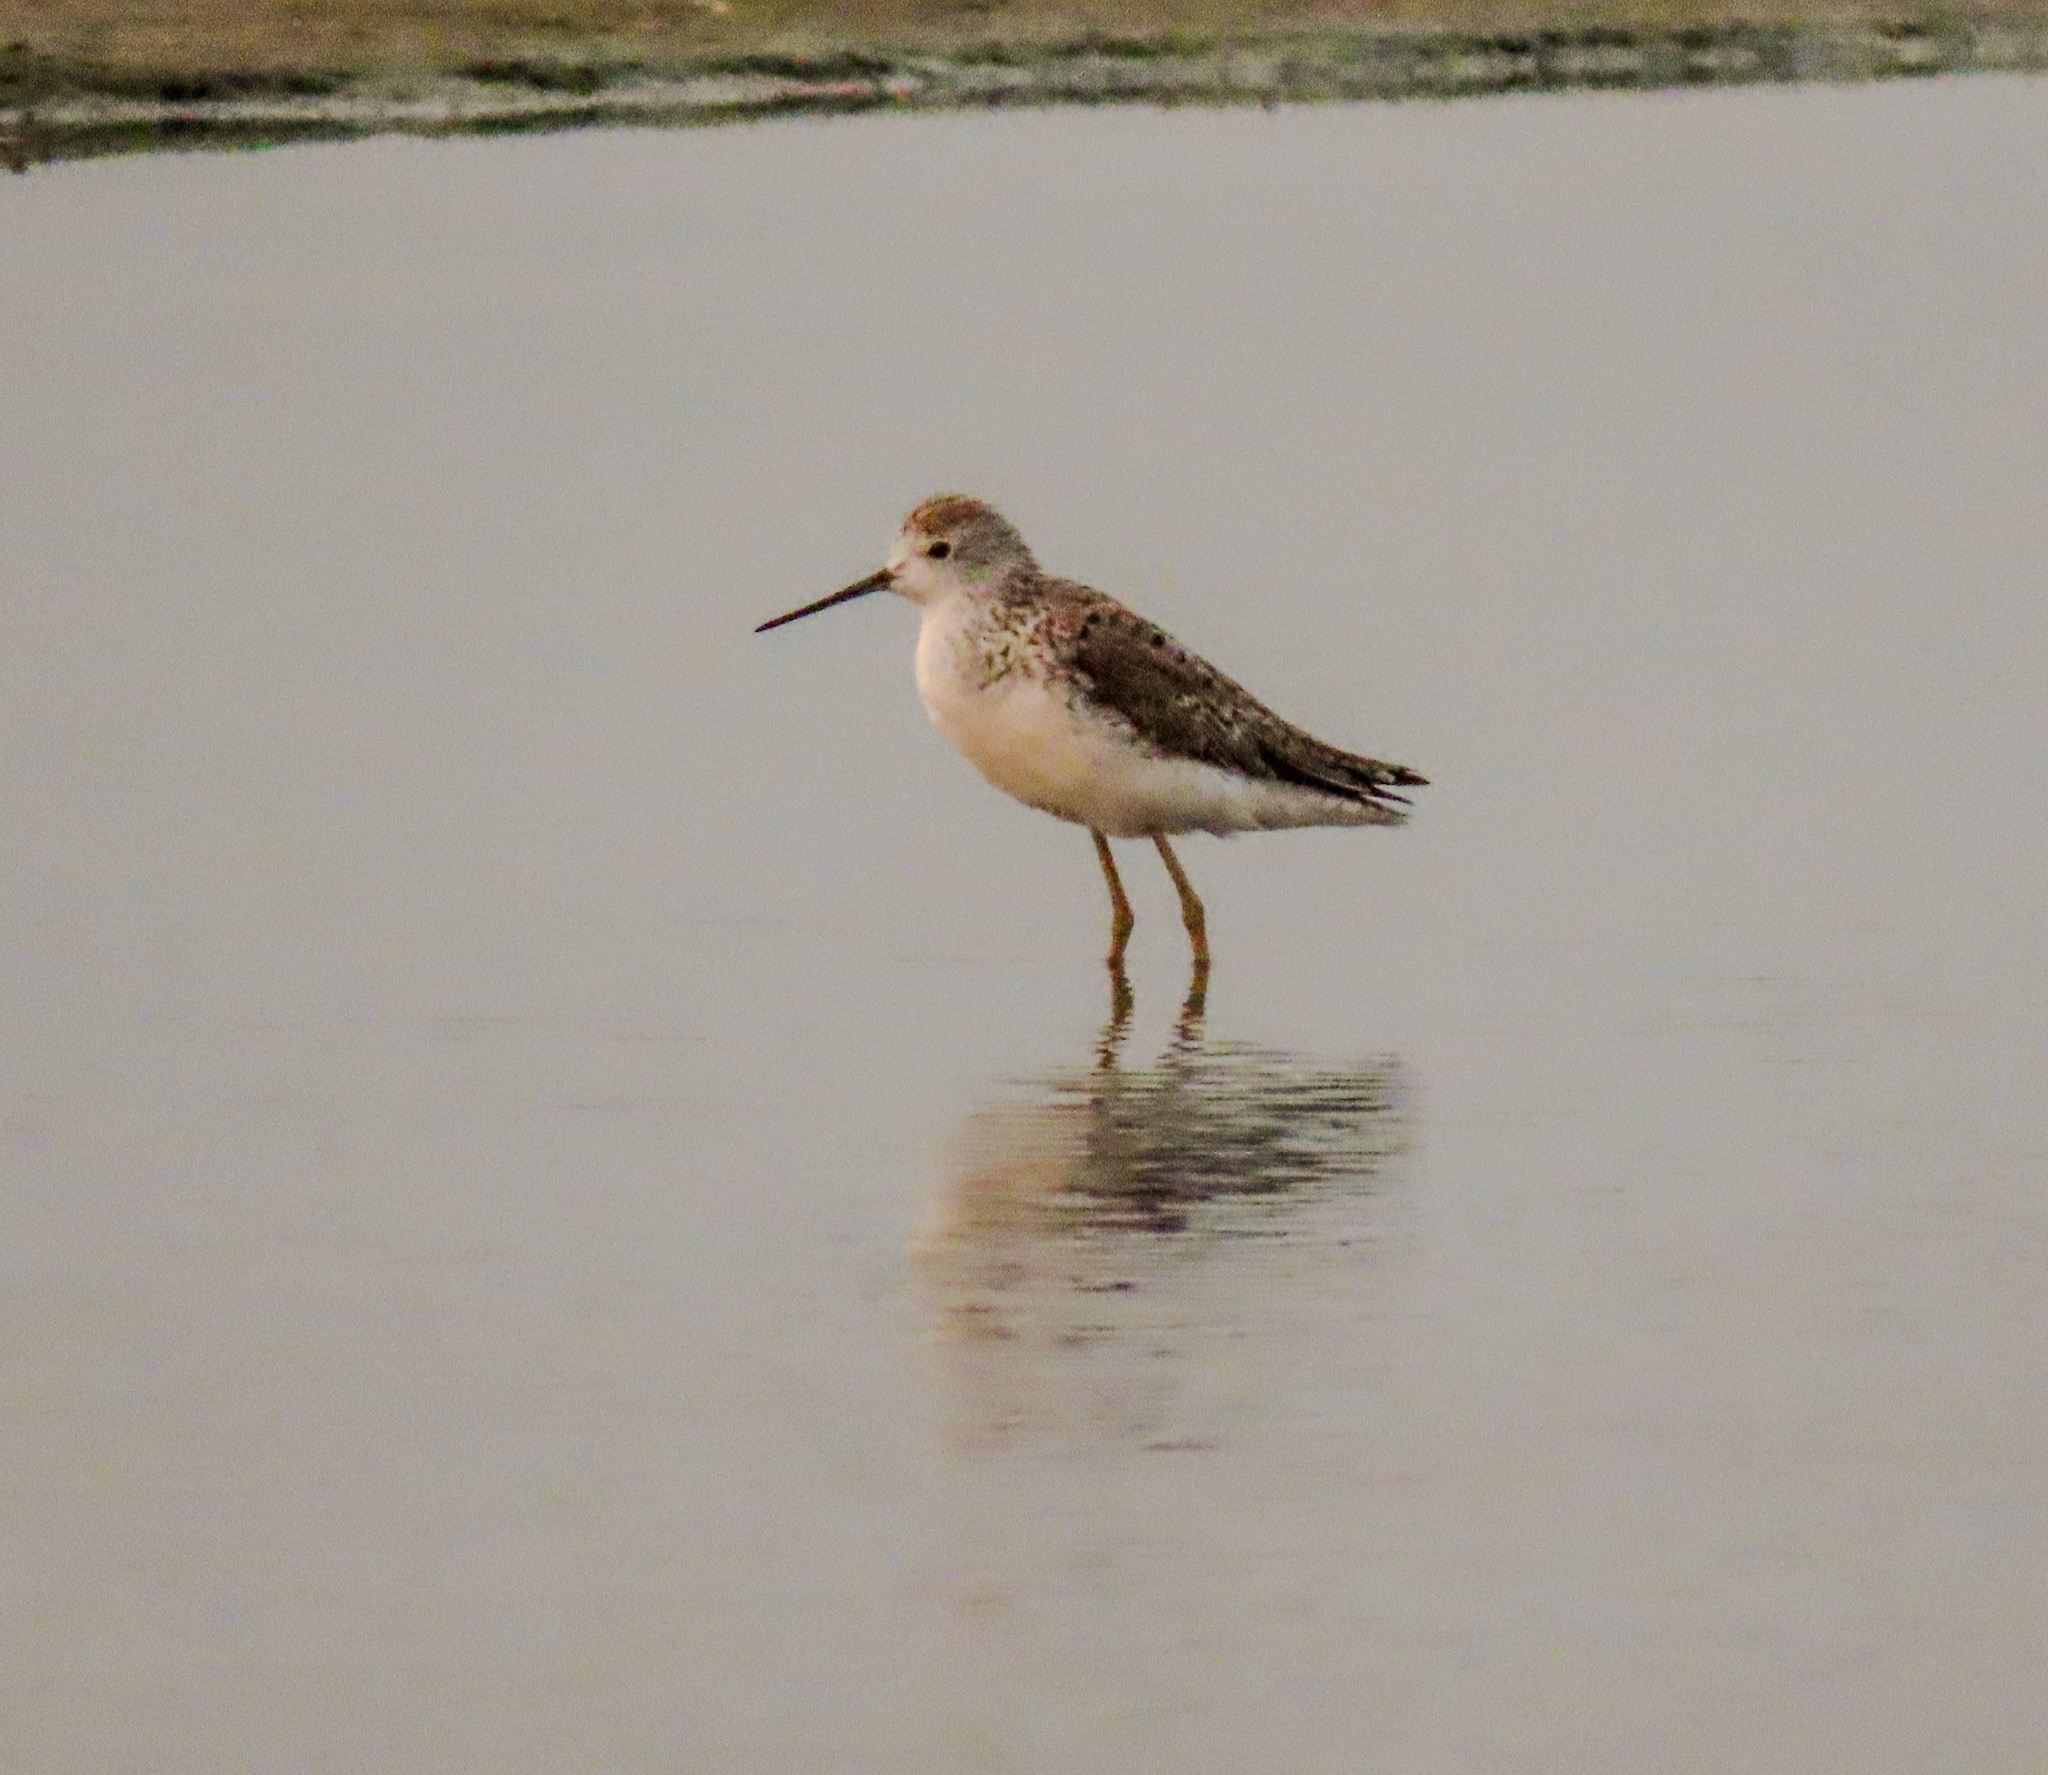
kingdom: Animalia
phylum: Chordata
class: Aves
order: Charadriiformes
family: Scolopacidae
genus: Tringa
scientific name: Tringa stagnatilis
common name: Marsh sandpiper
